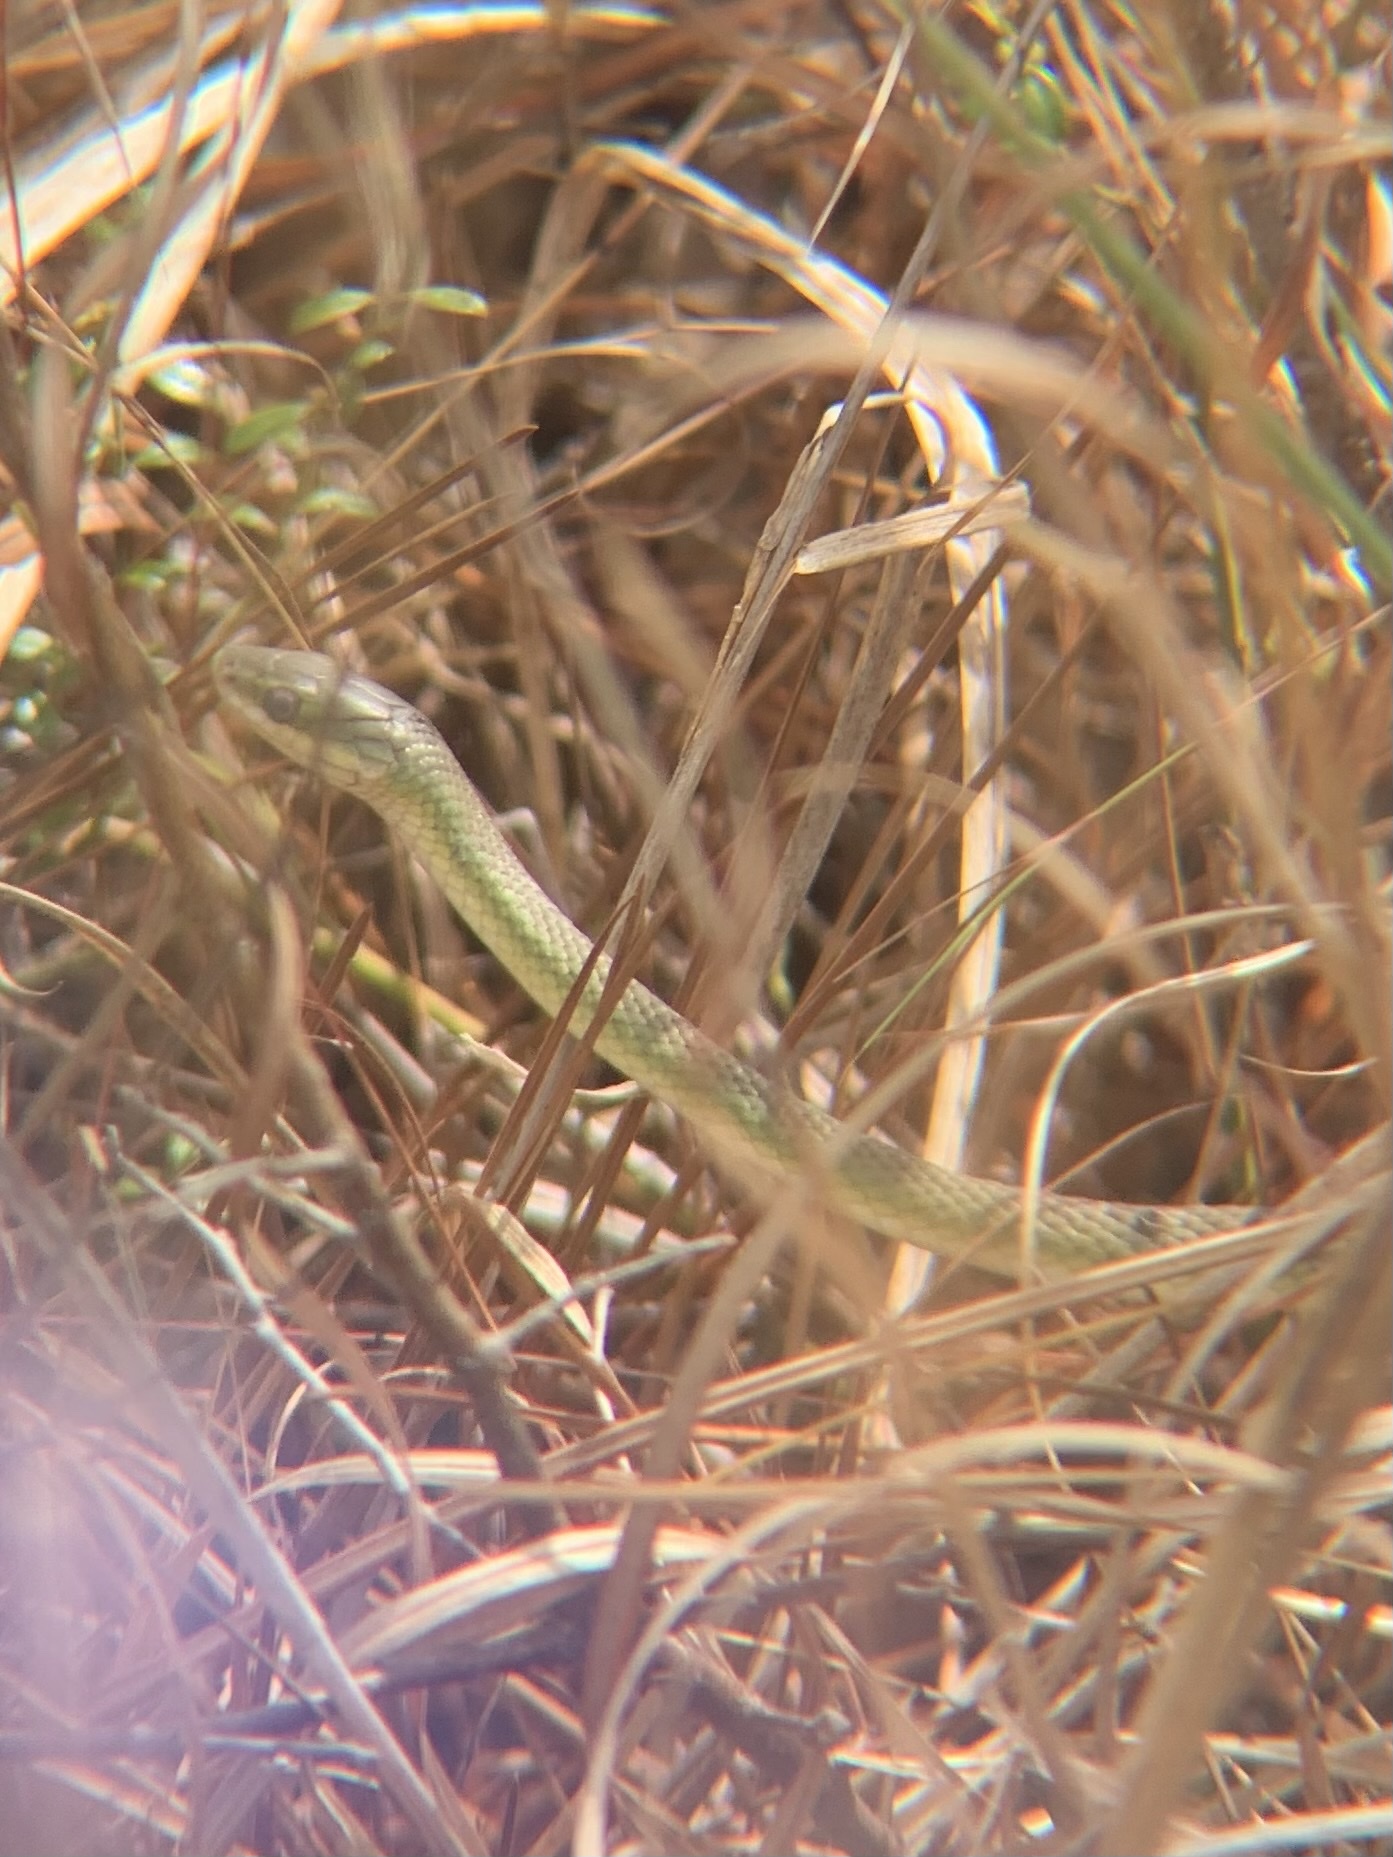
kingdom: Animalia
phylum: Chordata
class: Squamata
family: Colubridae
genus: Opheodrys
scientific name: Opheodrys aestivus
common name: Rough greensnake
